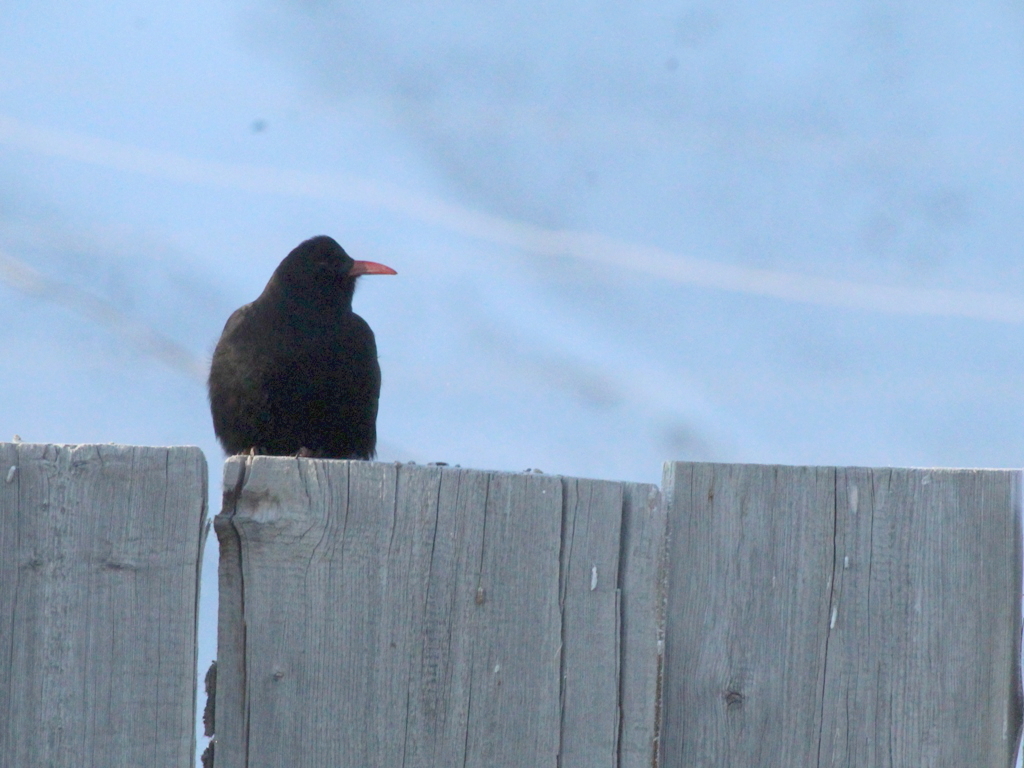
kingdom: Animalia
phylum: Chordata
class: Aves
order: Passeriformes
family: Corvidae
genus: Pyrrhocorax
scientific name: Pyrrhocorax pyrrhocorax
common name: Red-billed chough
